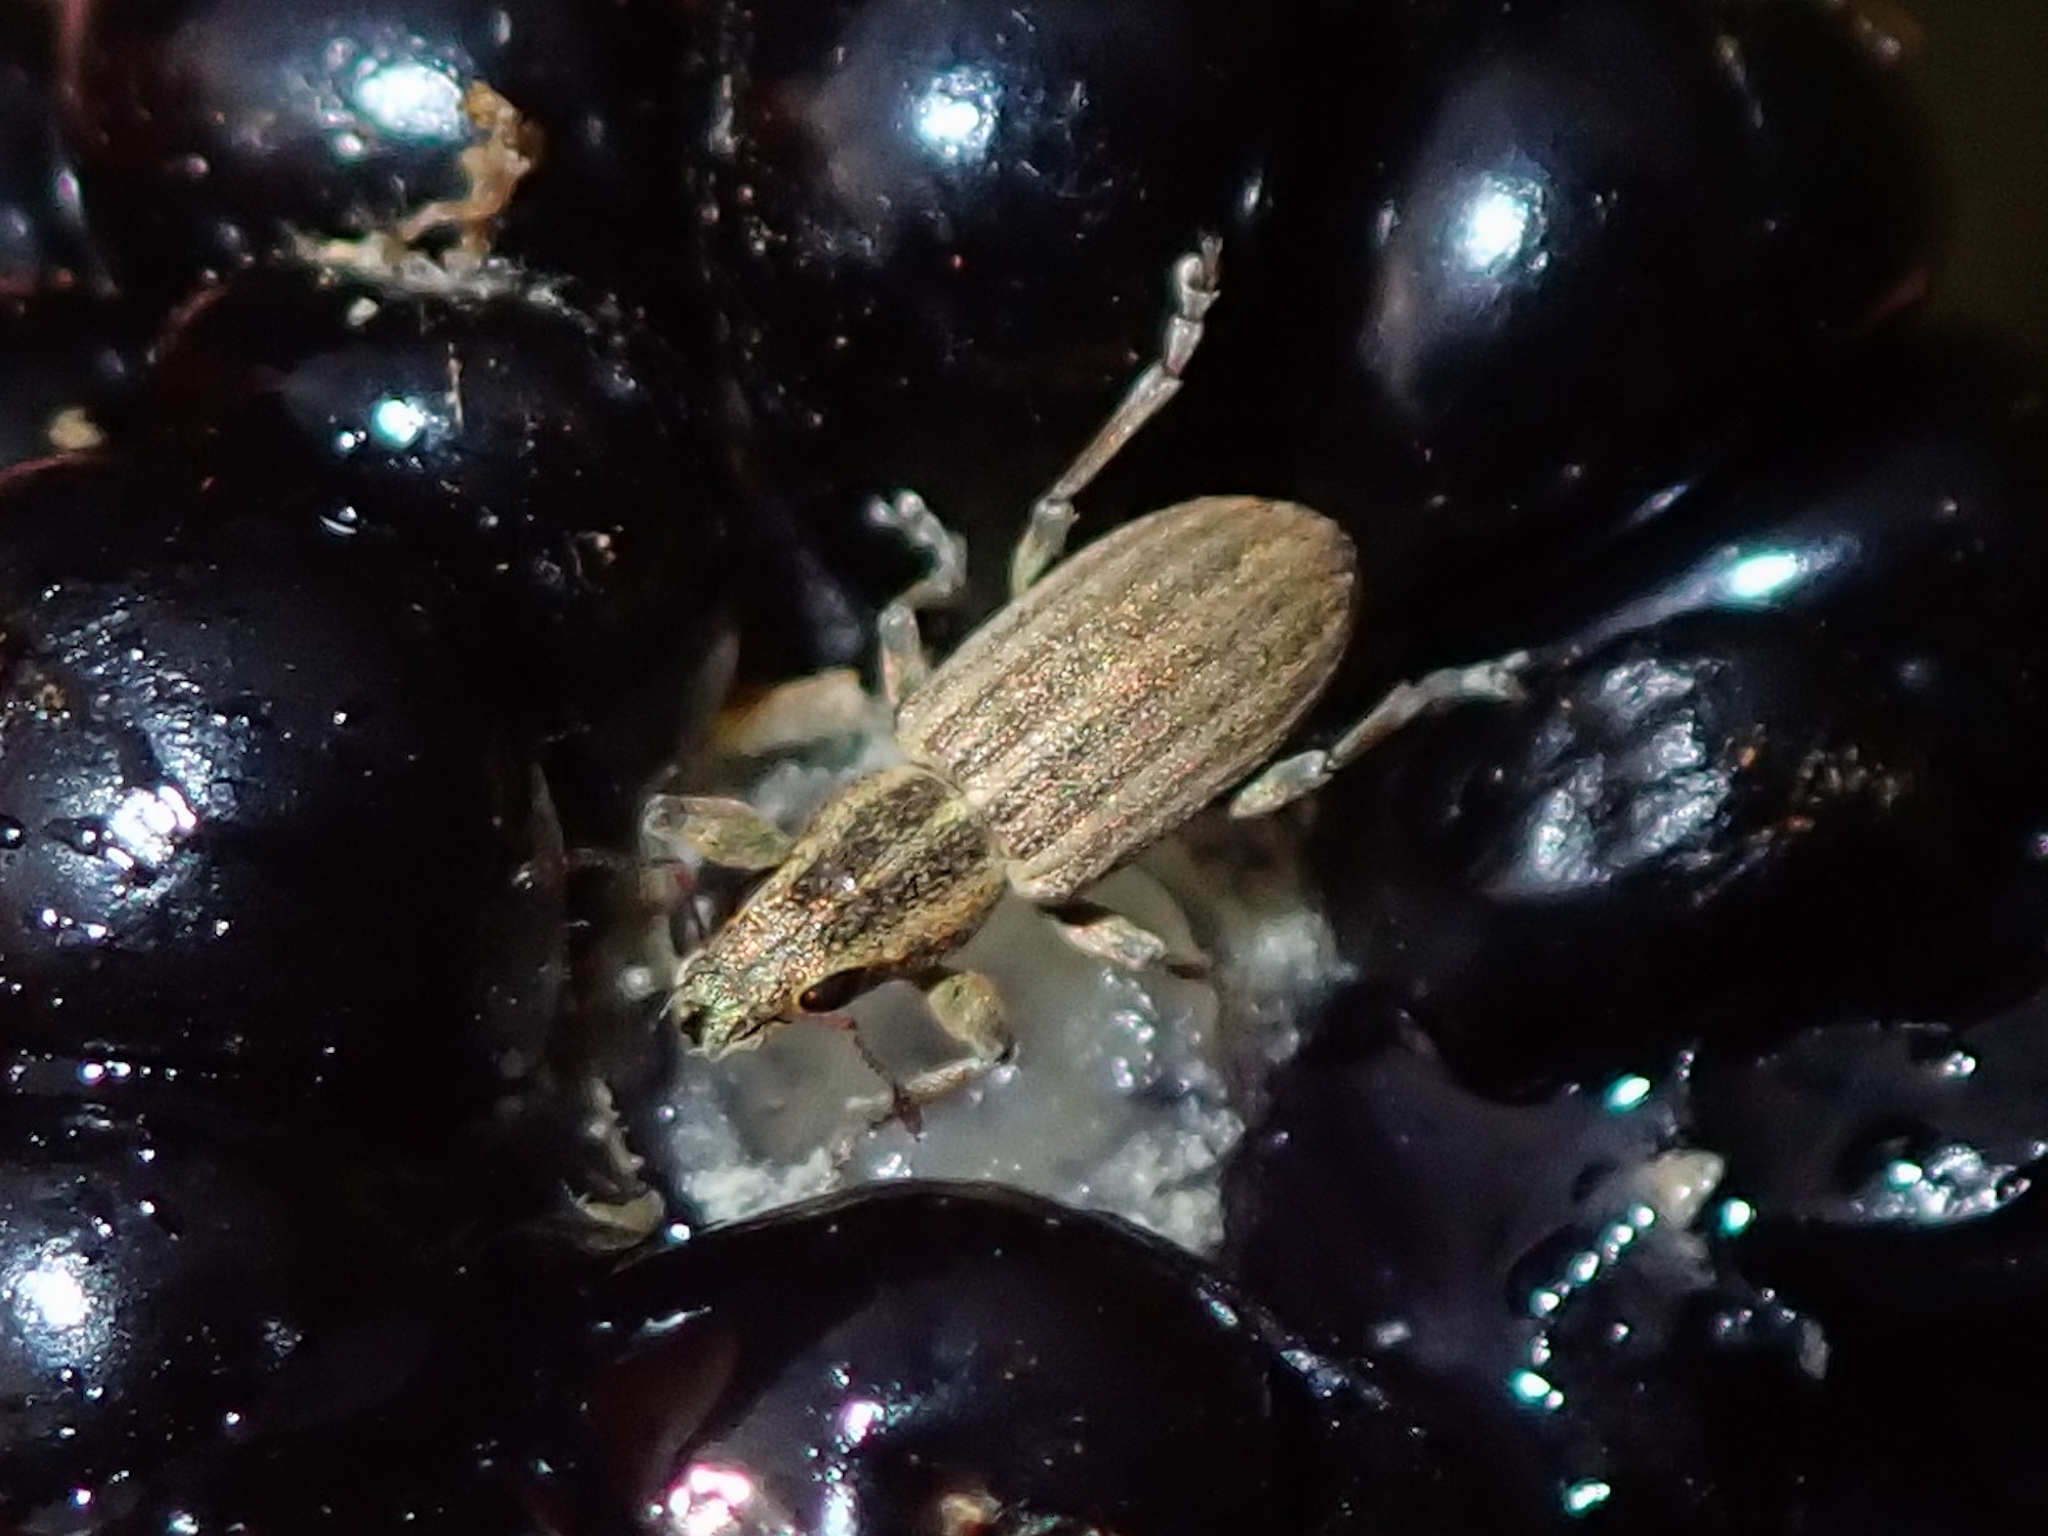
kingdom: Animalia
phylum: Arthropoda
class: Insecta
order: Coleoptera
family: Curculionidae
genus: Sitona
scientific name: Sitona lineatus
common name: Weevil
